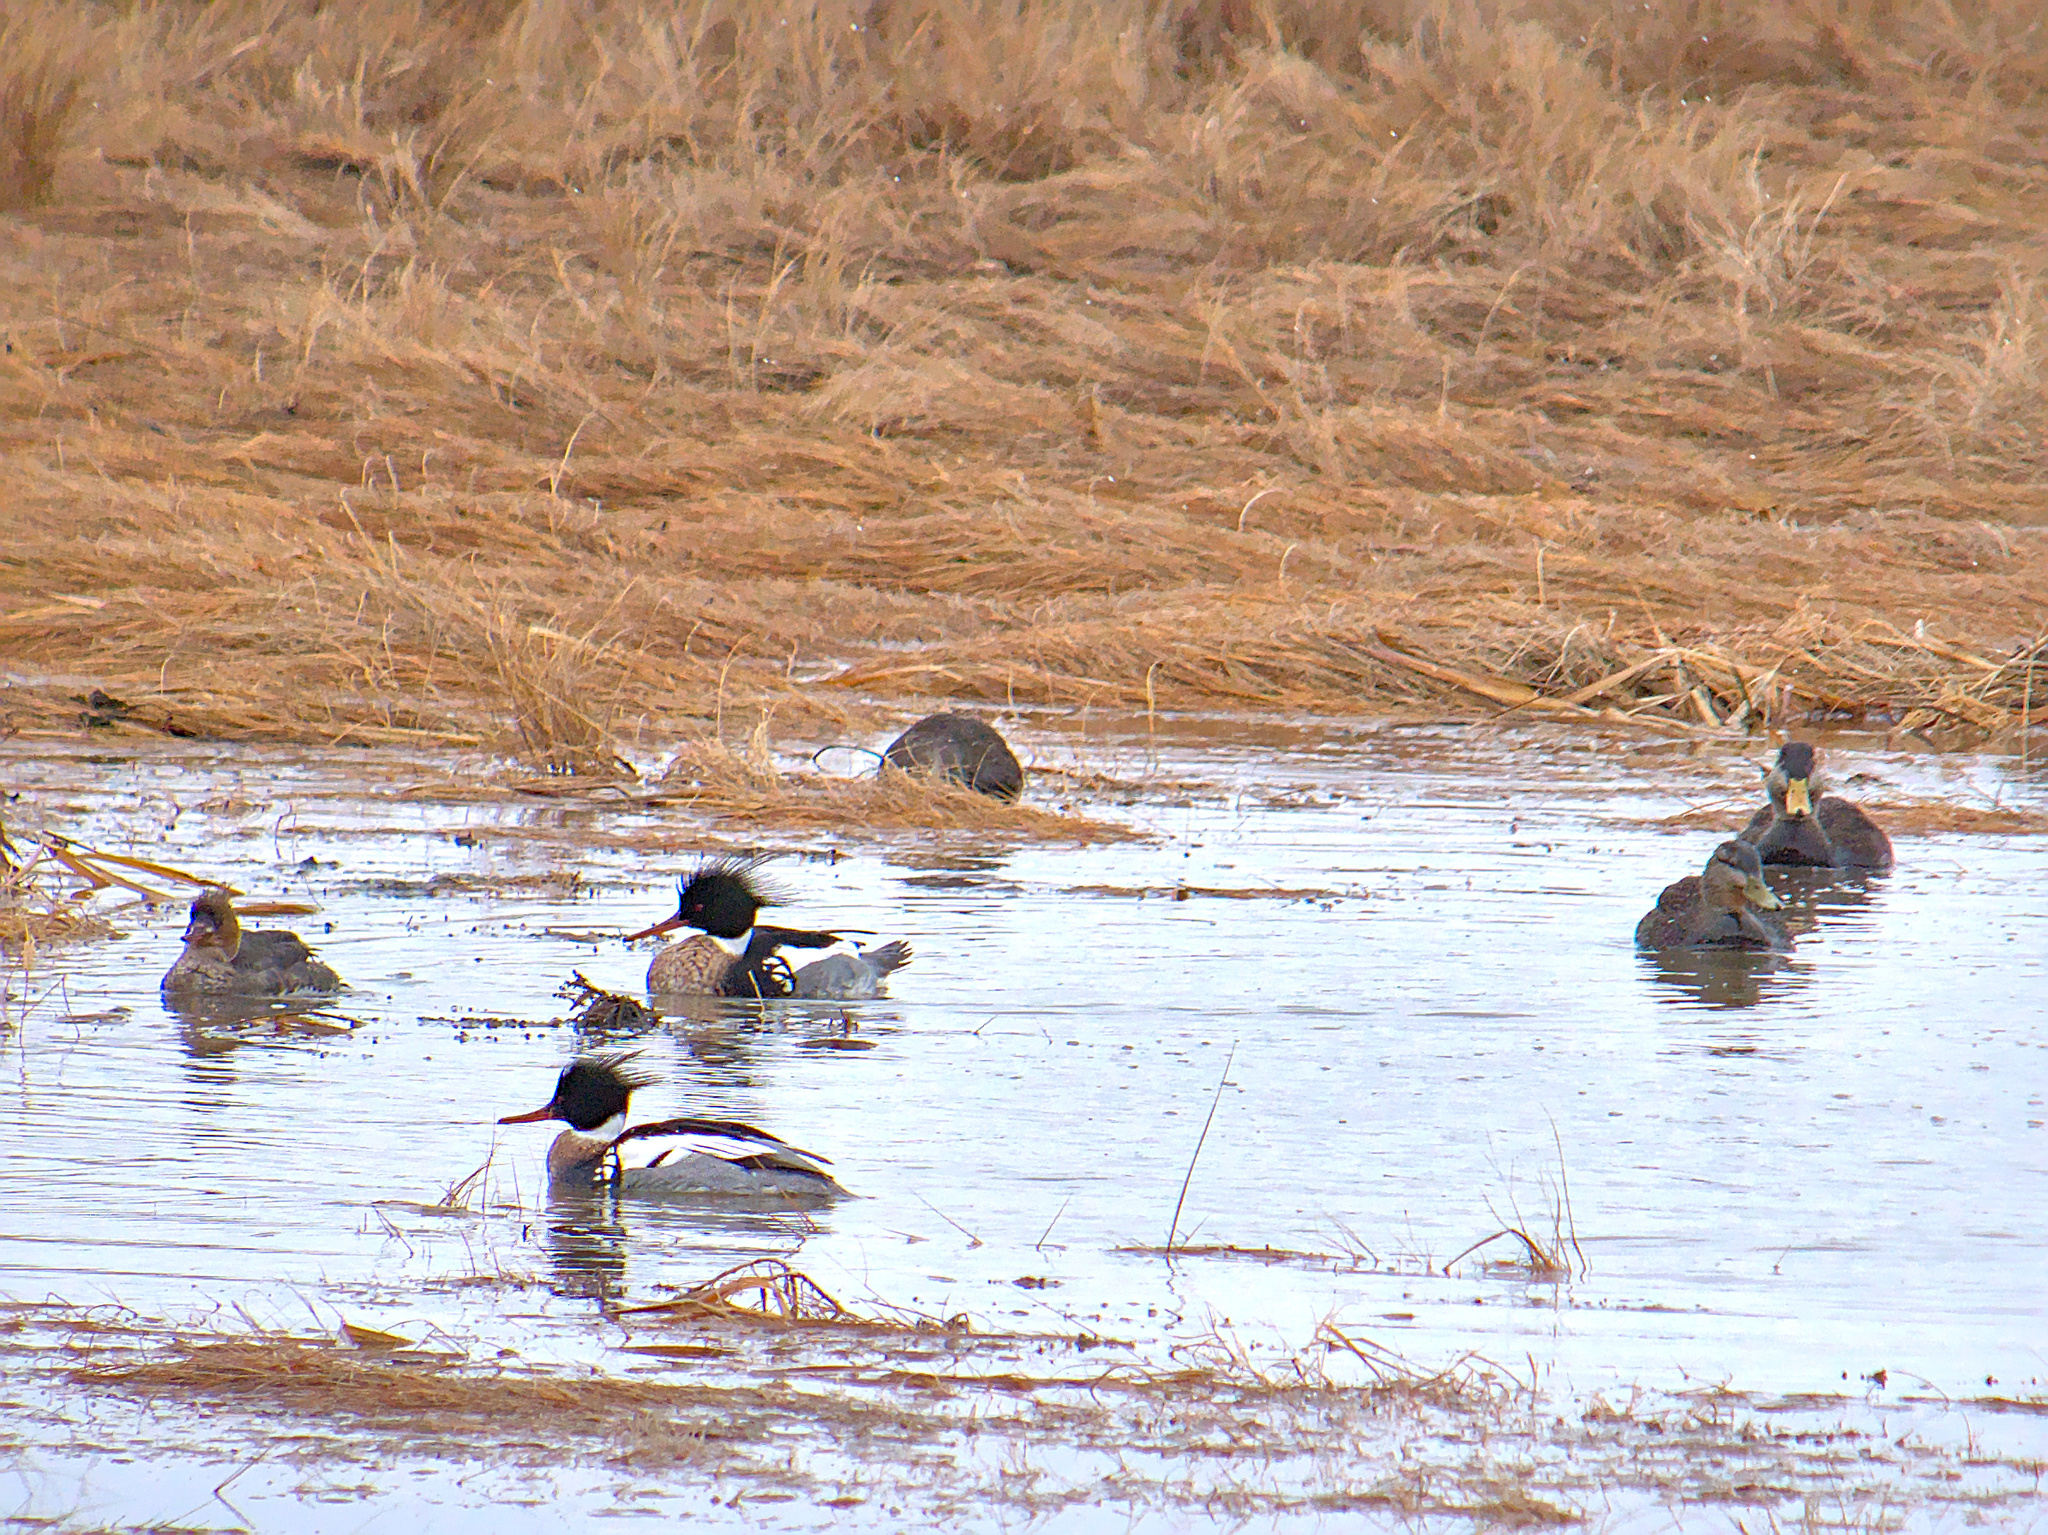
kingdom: Animalia
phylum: Chordata
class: Aves
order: Anseriformes
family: Anatidae
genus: Anas
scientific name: Anas rubripes
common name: American black duck
